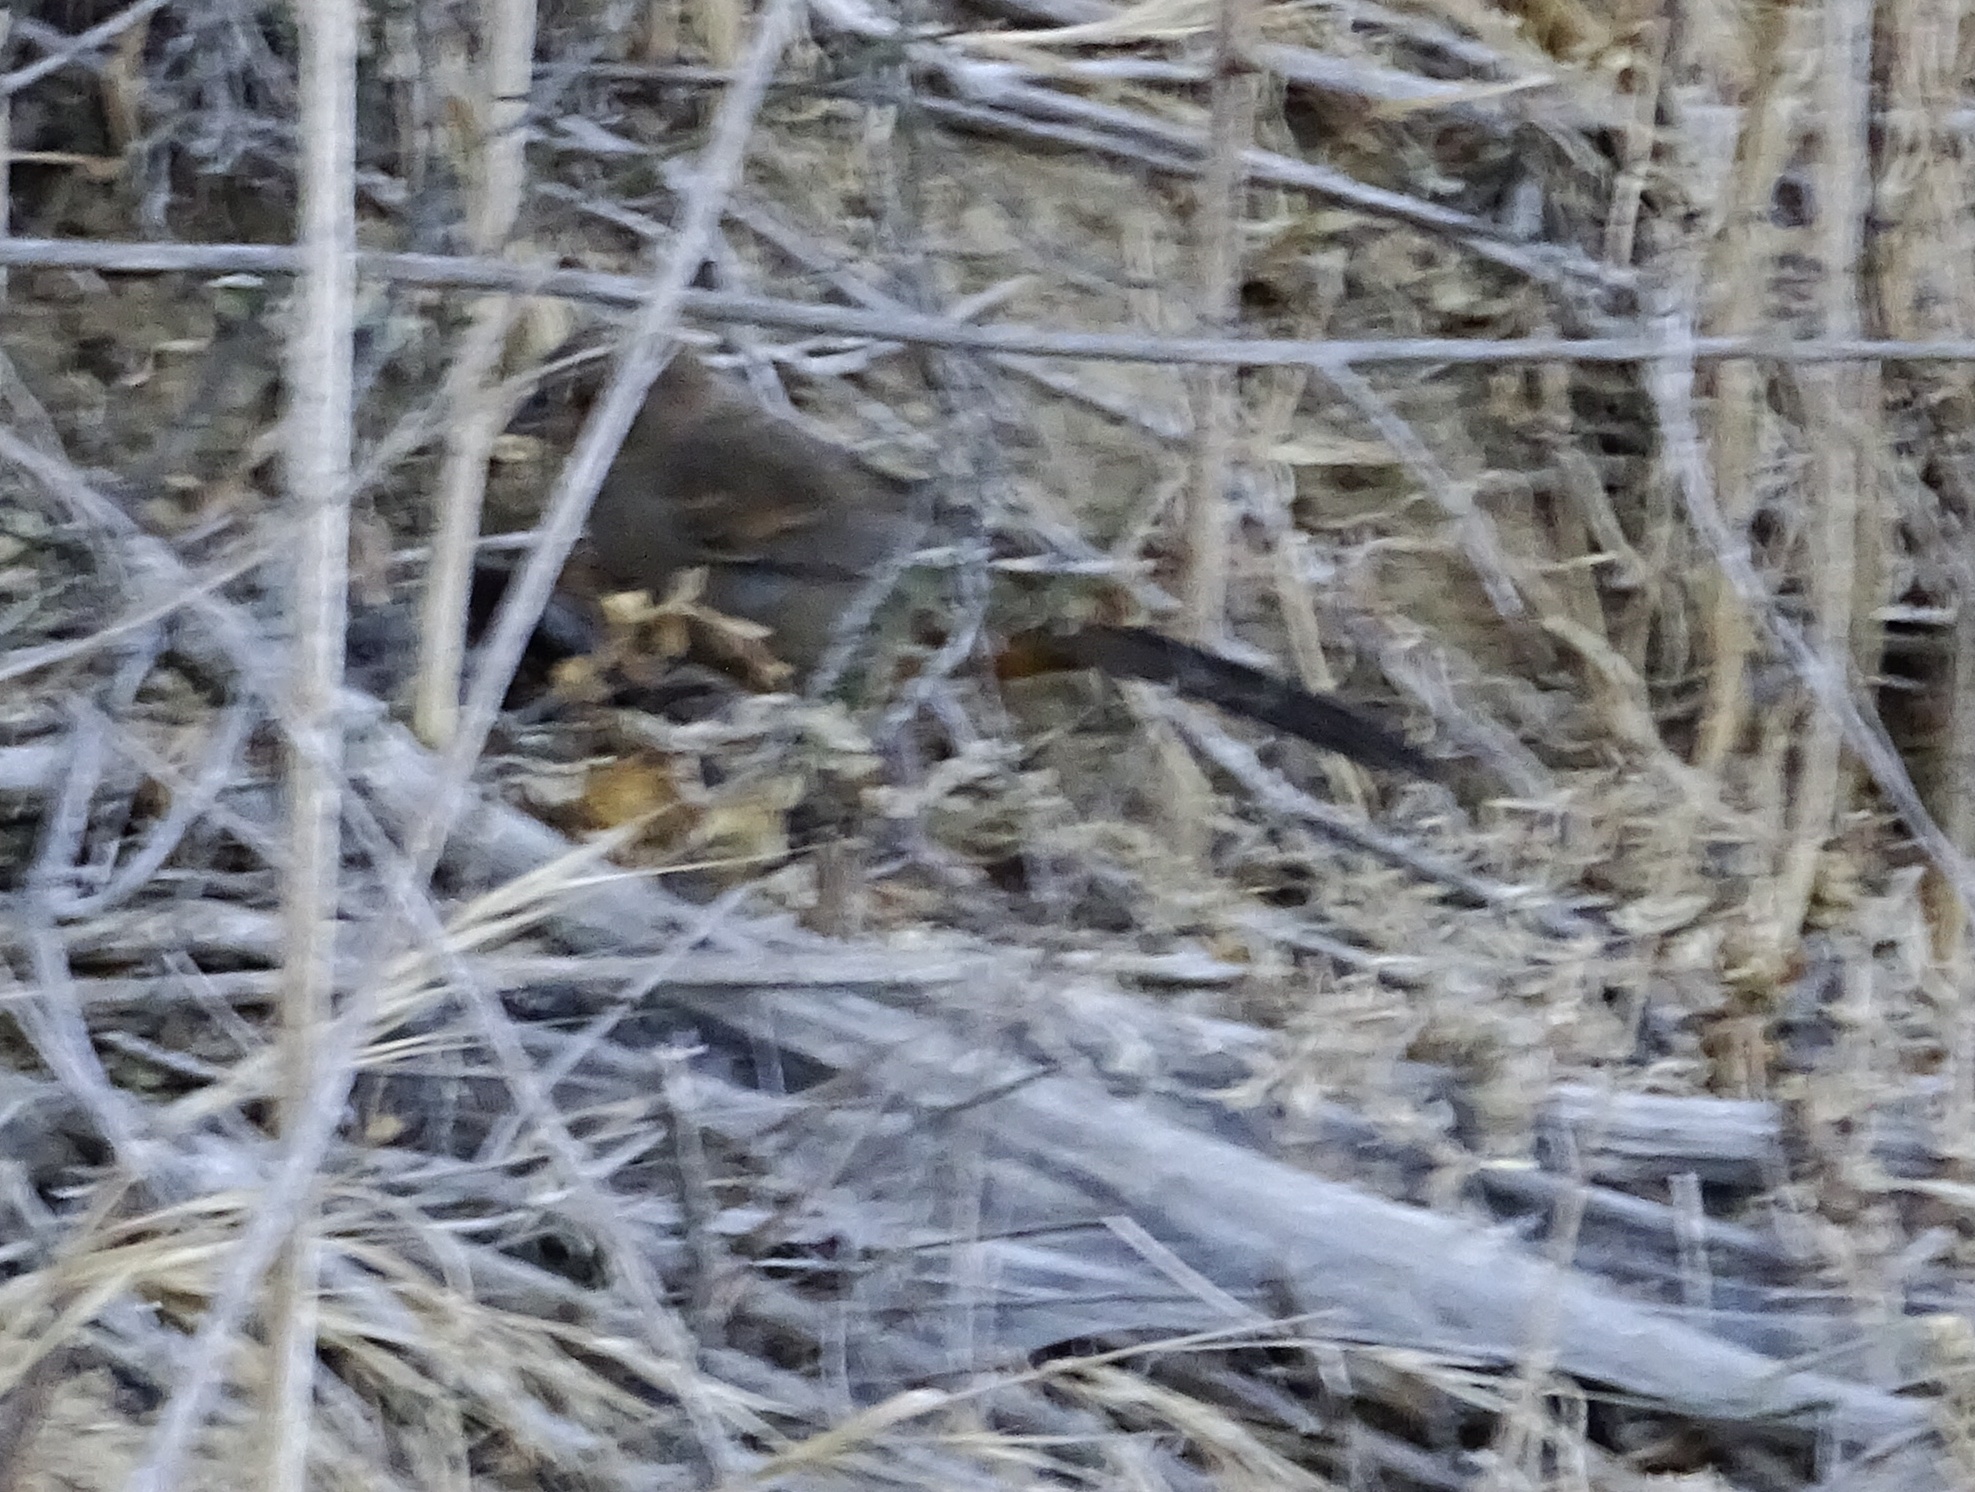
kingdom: Animalia
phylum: Chordata
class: Aves
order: Passeriformes
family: Passerellidae
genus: Melozone
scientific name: Melozone crissalis
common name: California towhee
